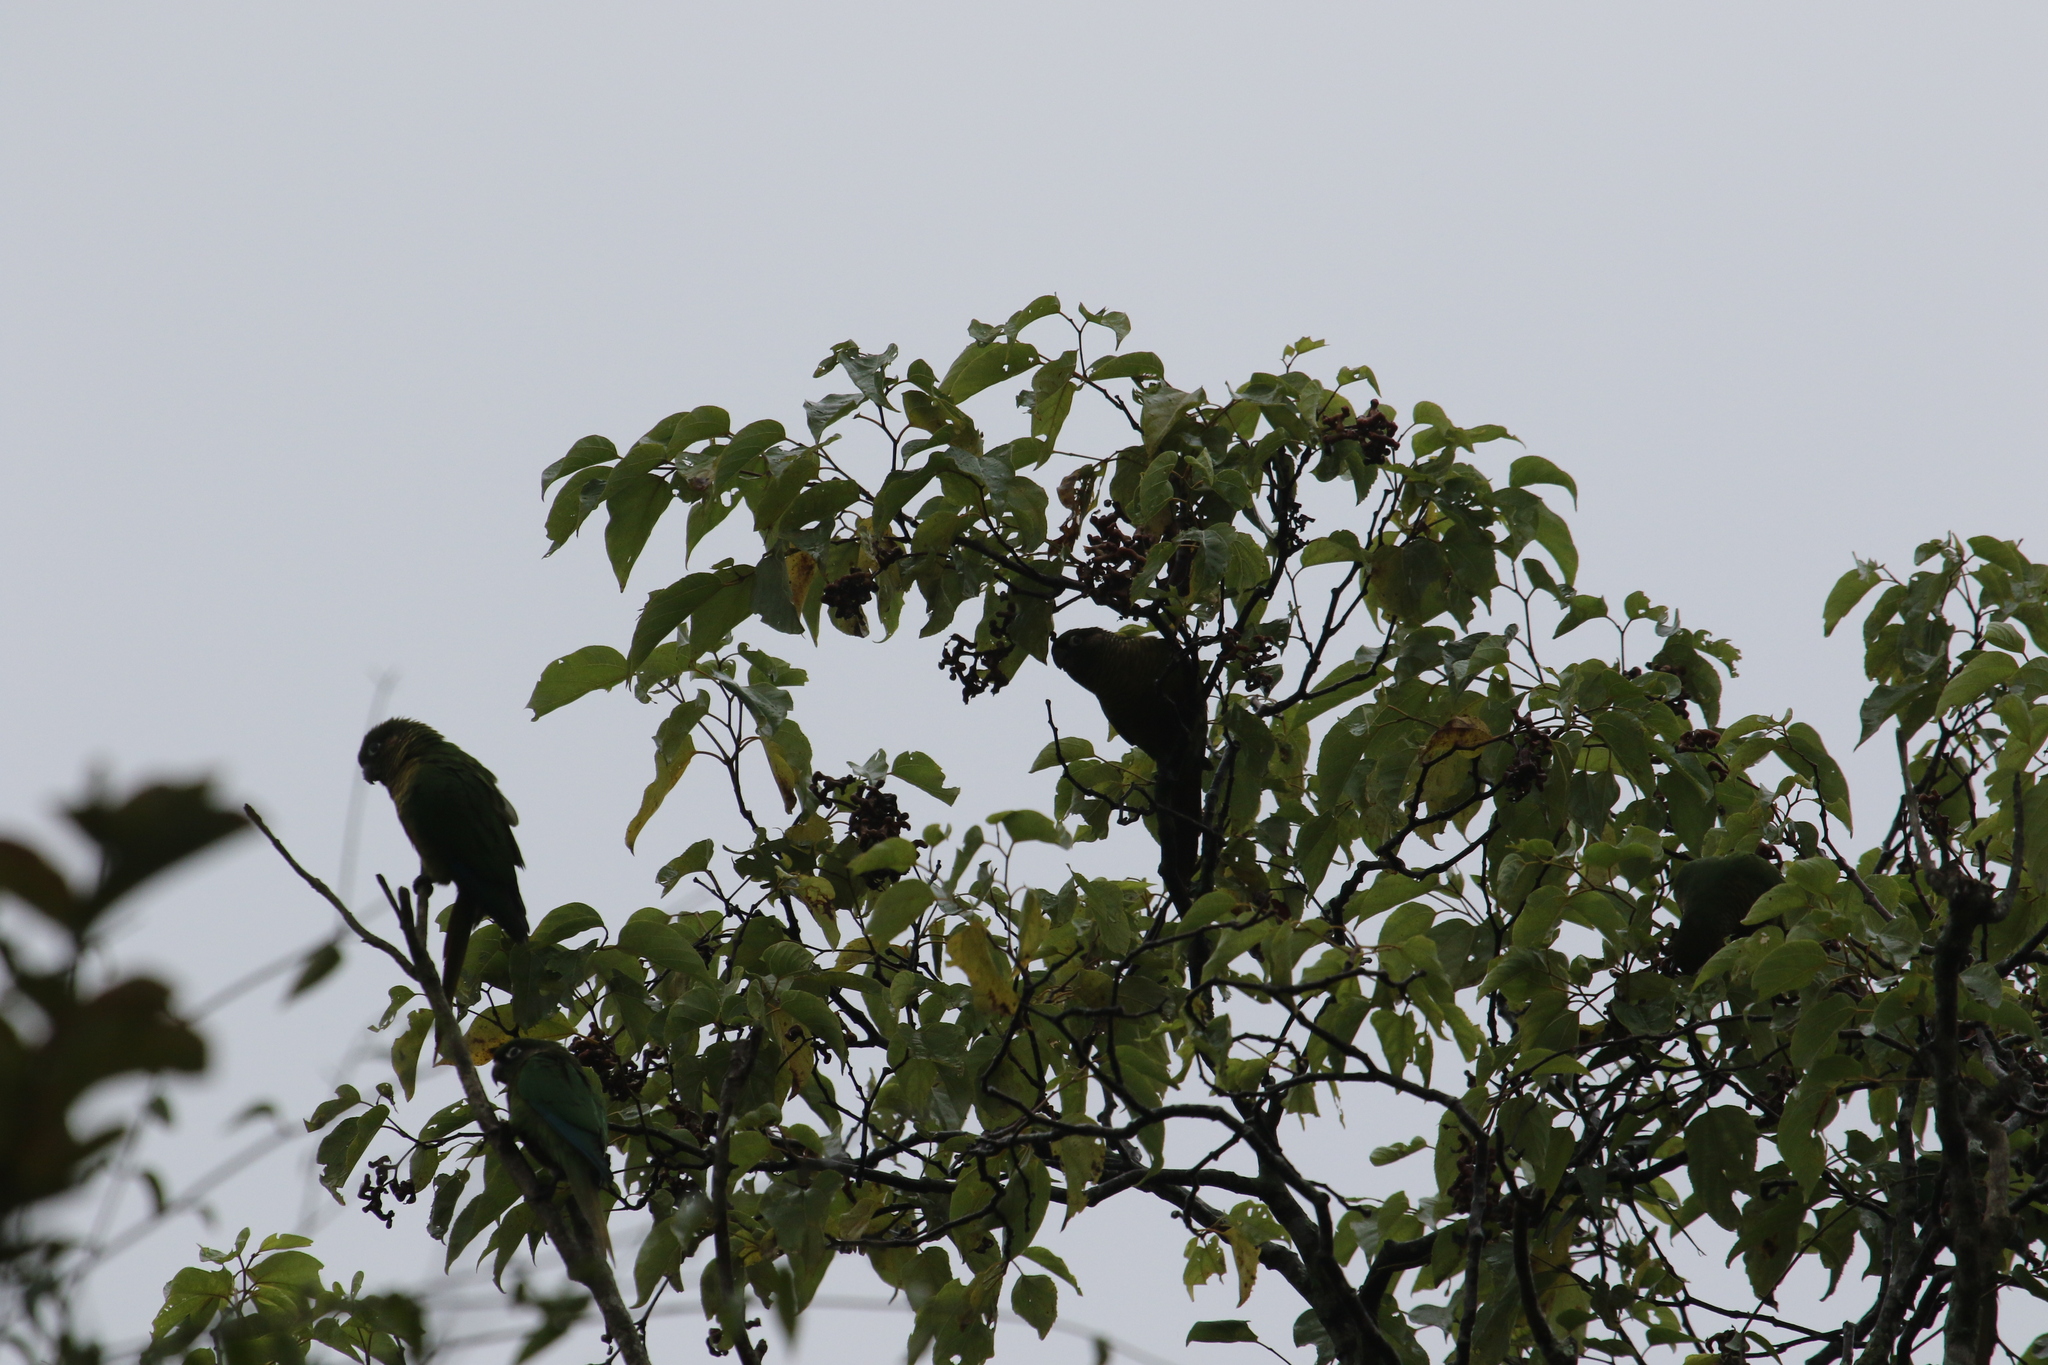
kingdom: Animalia
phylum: Chordata
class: Aves
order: Psittaciformes
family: Psittacidae
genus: Pyrrhura
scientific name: Pyrrhura frontalis
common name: Maroon-bellied parakeet
